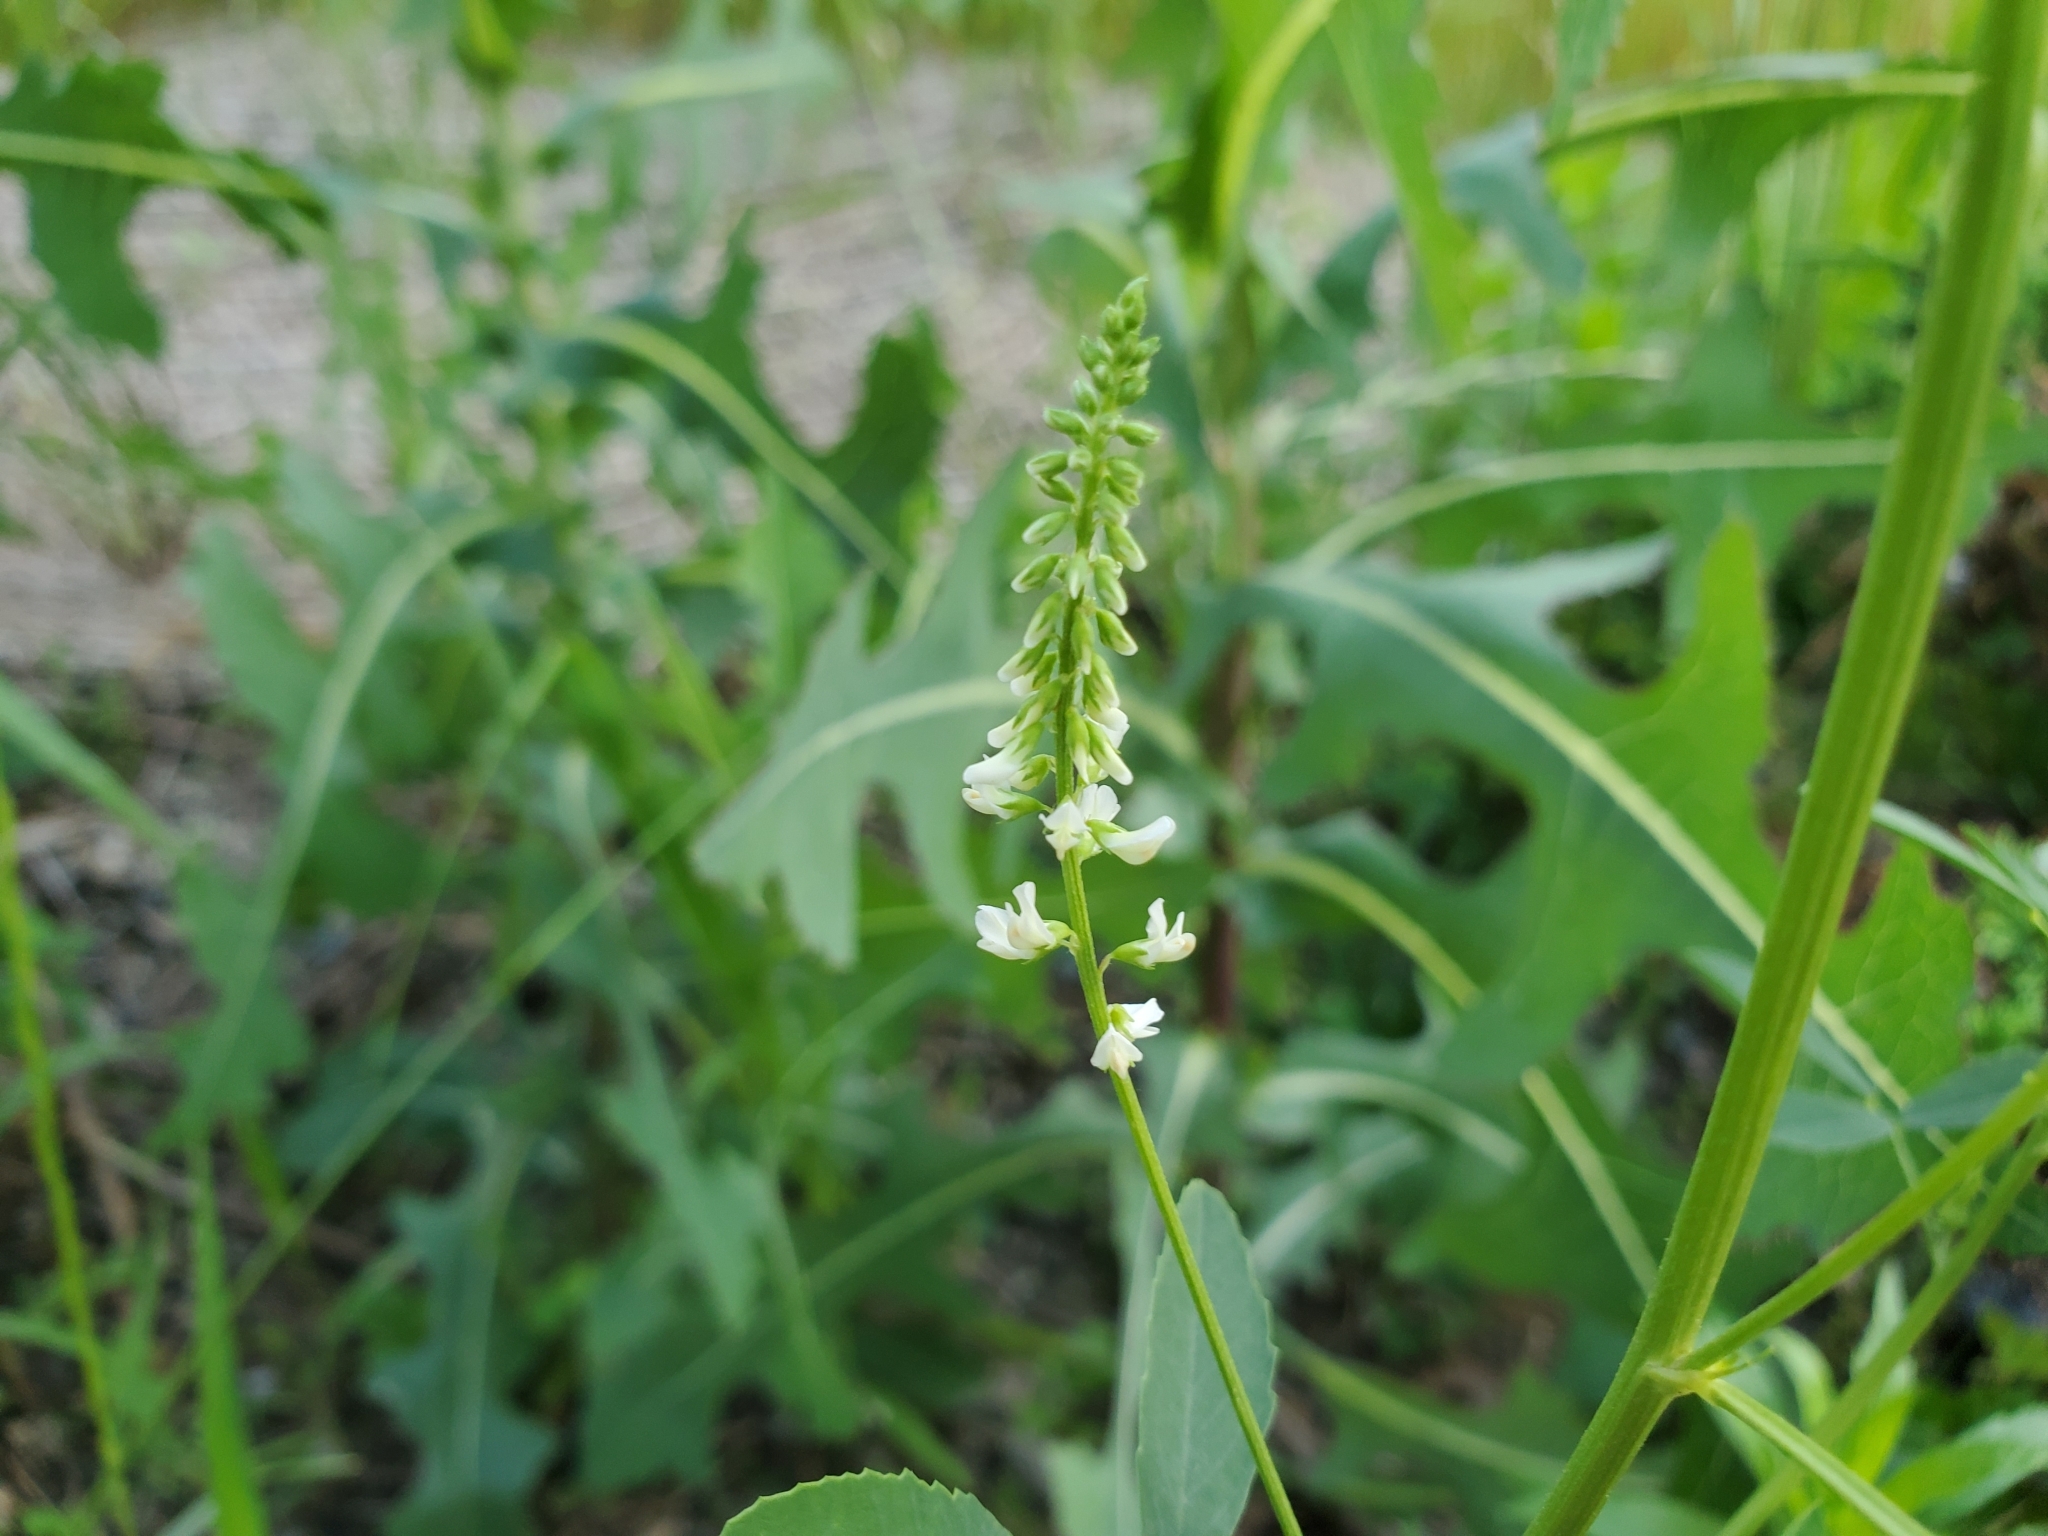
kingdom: Plantae
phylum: Tracheophyta
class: Magnoliopsida
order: Fabales
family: Fabaceae
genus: Melilotus
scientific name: Melilotus albus
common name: White melilot
